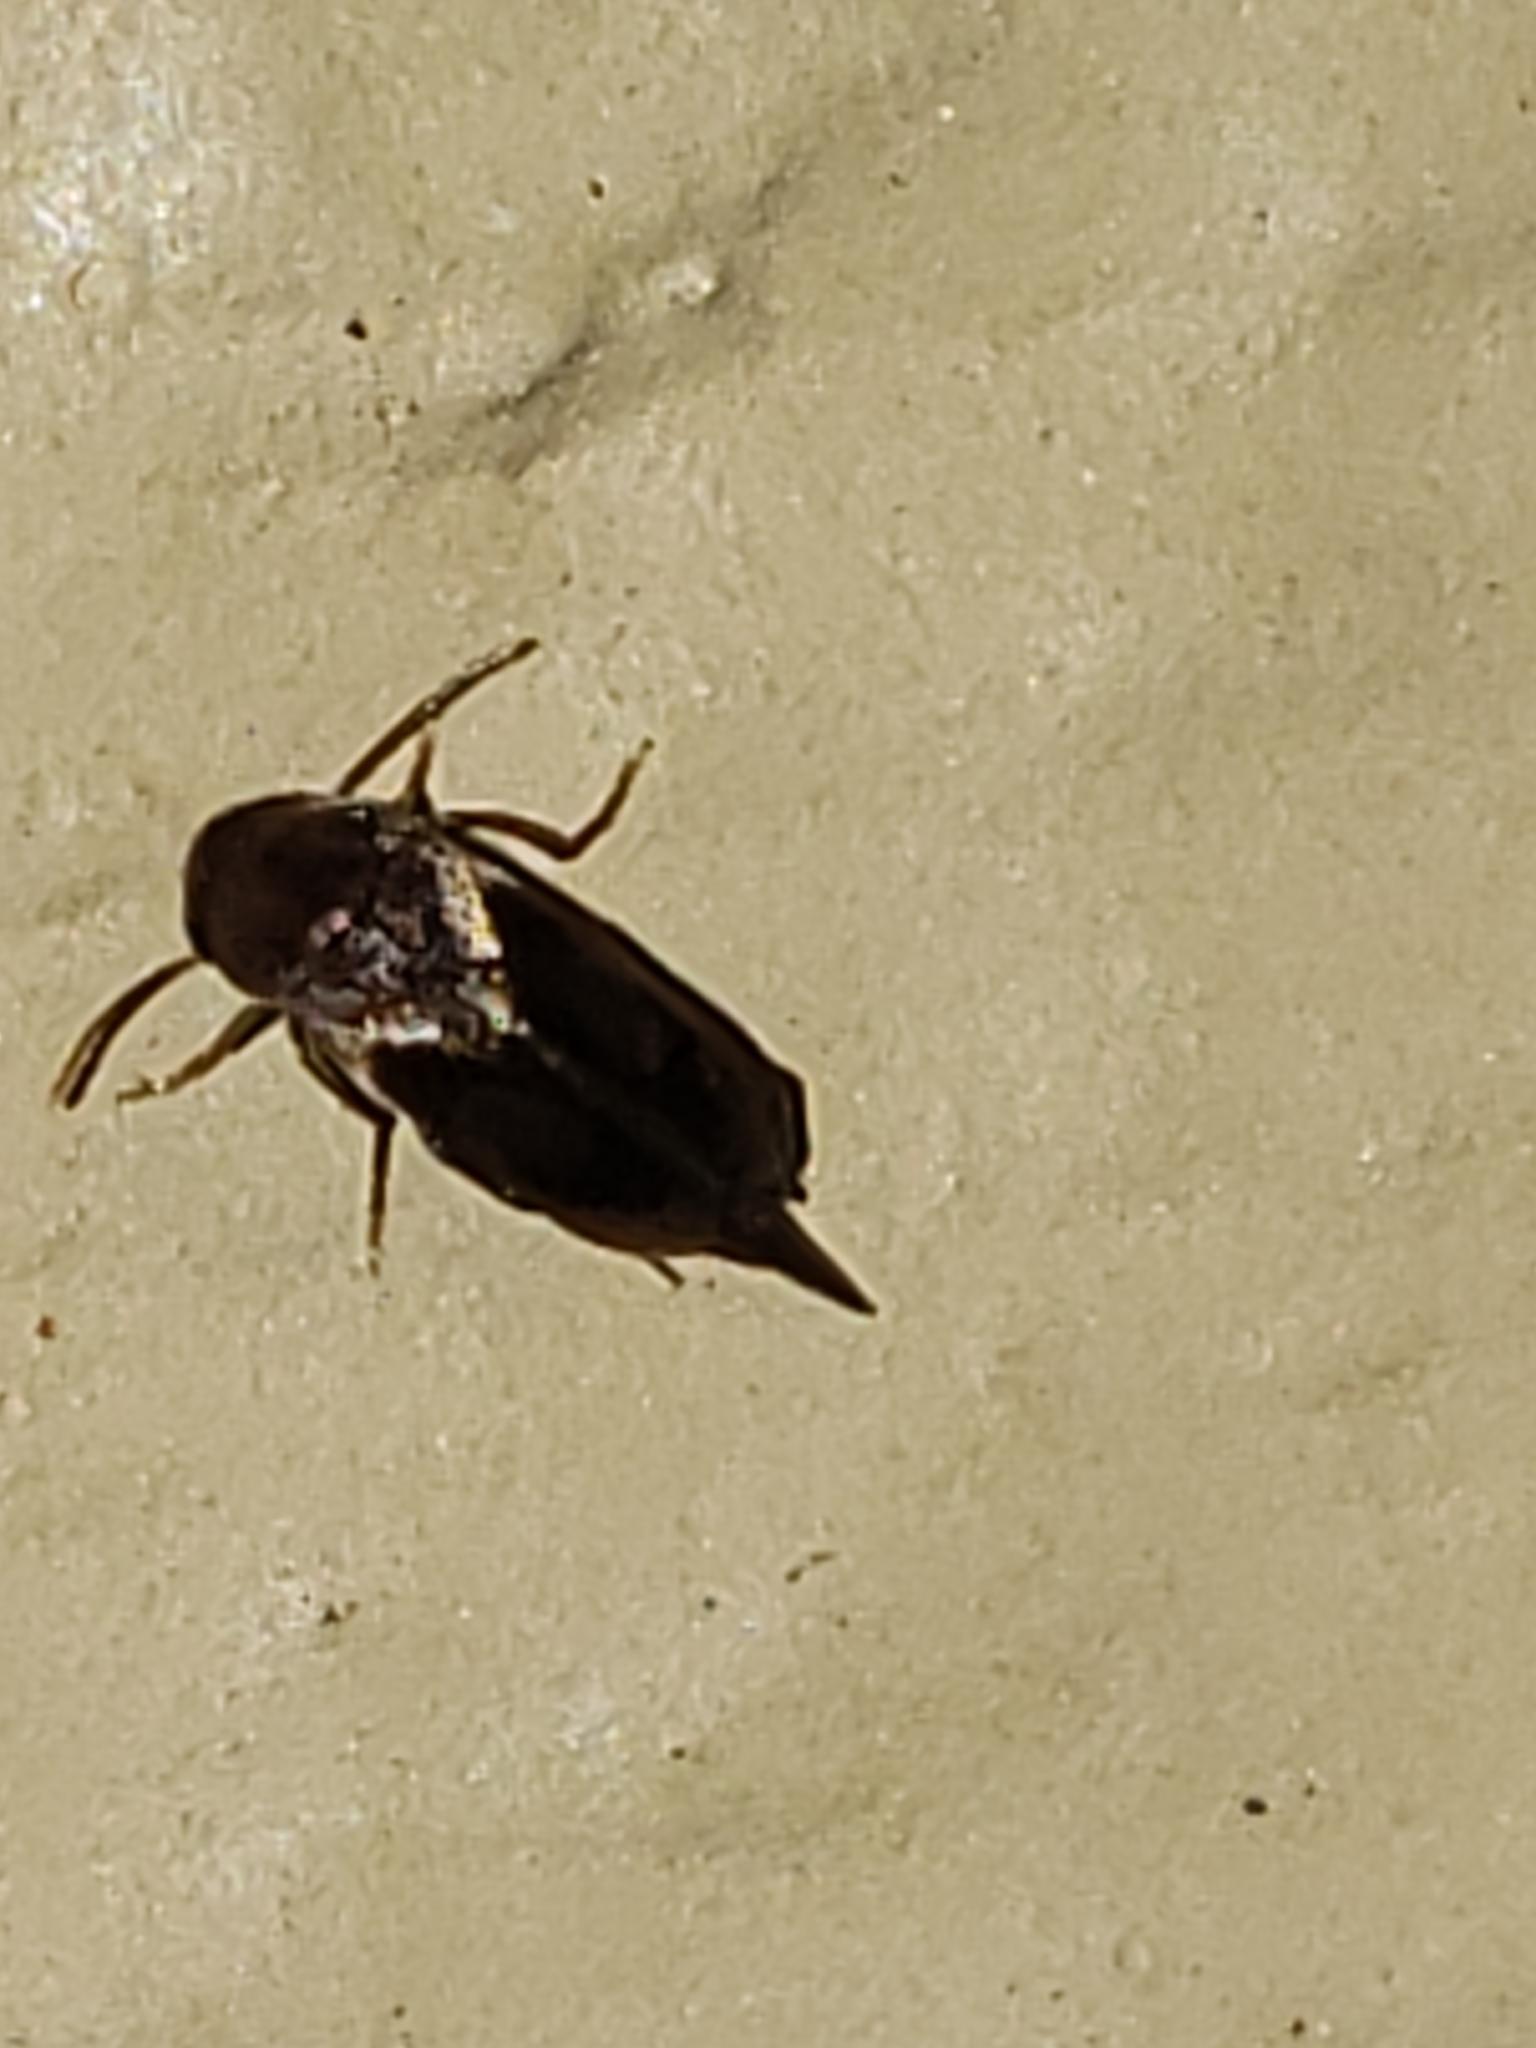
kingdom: Animalia
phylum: Arthropoda
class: Insecta
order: Coleoptera
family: Mordellidae
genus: Falsomordellistena
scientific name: Falsomordellistena liturata
